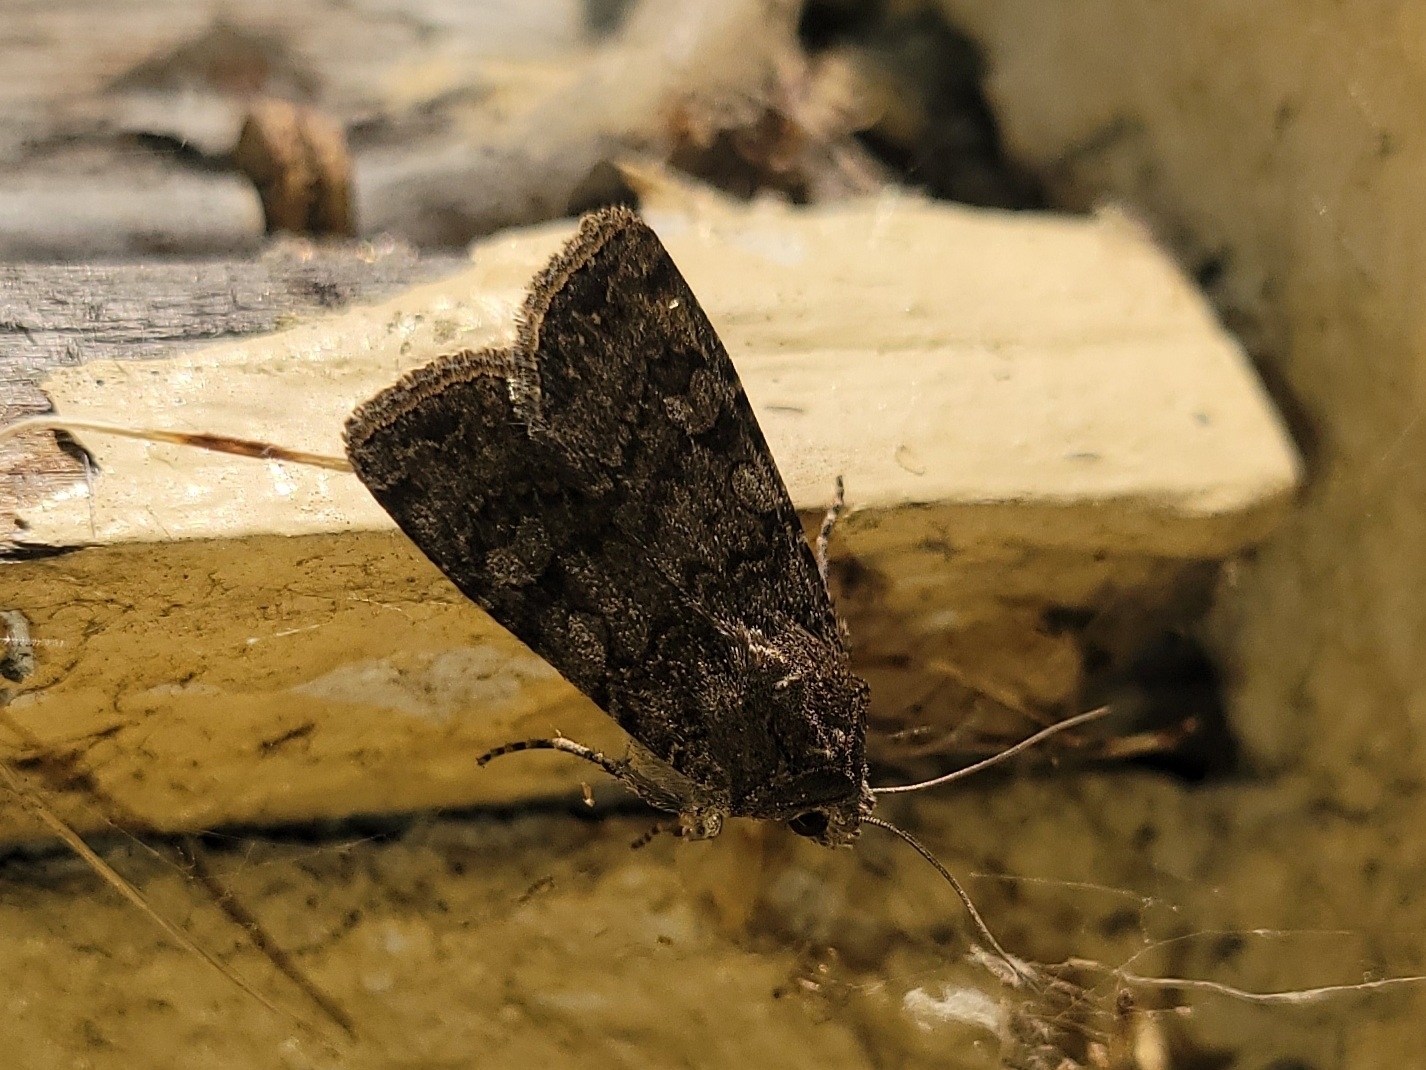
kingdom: Animalia
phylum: Arthropoda
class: Insecta
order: Lepidoptera
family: Noctuidae
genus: Euxoa
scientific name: Euxoa messoria
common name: Darksided cutworm
